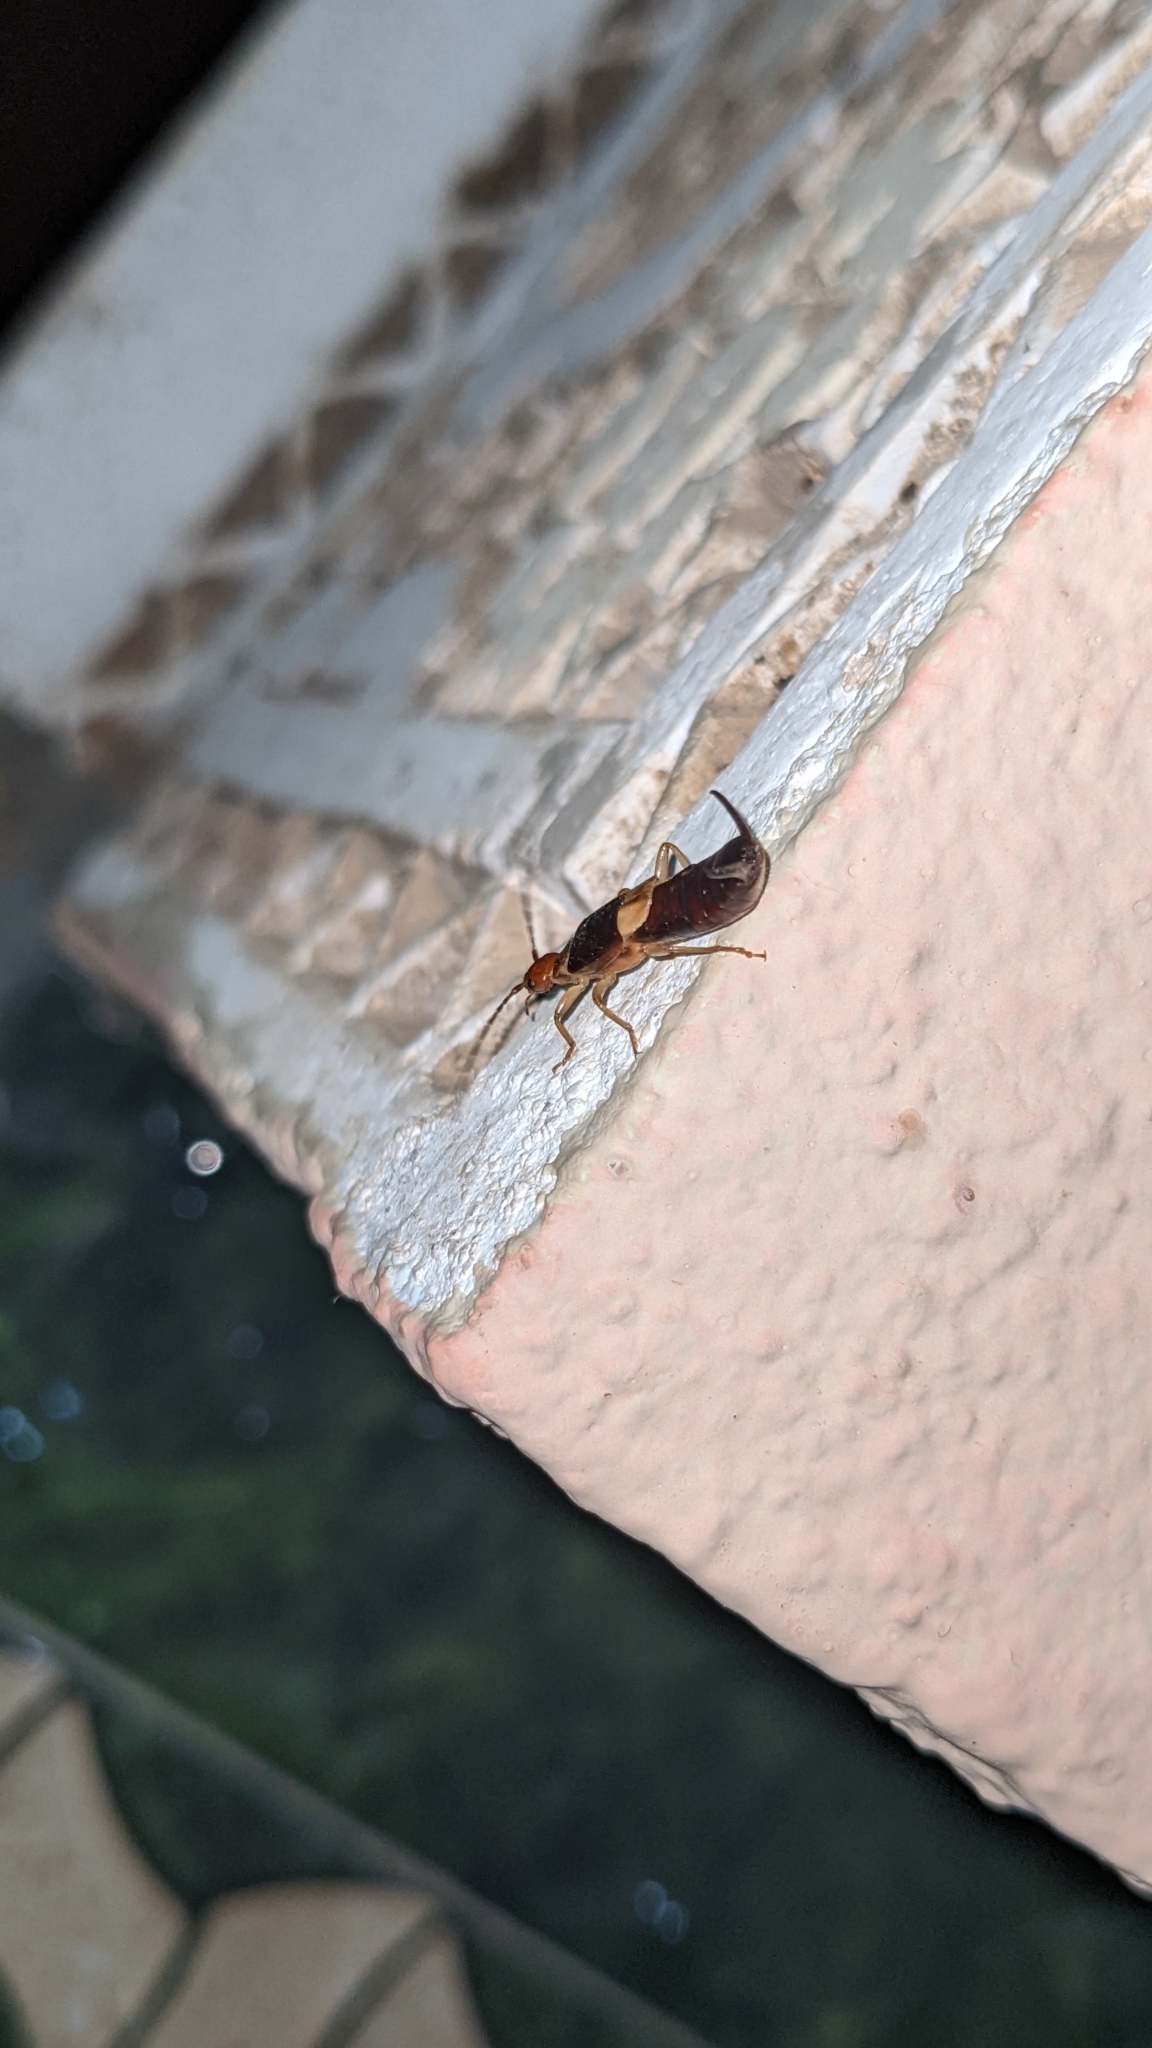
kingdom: Animalia
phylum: Arthropoda
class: Insecta
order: Dermaptera
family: Forficulidae
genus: Forficula
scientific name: Forficula riffensis
